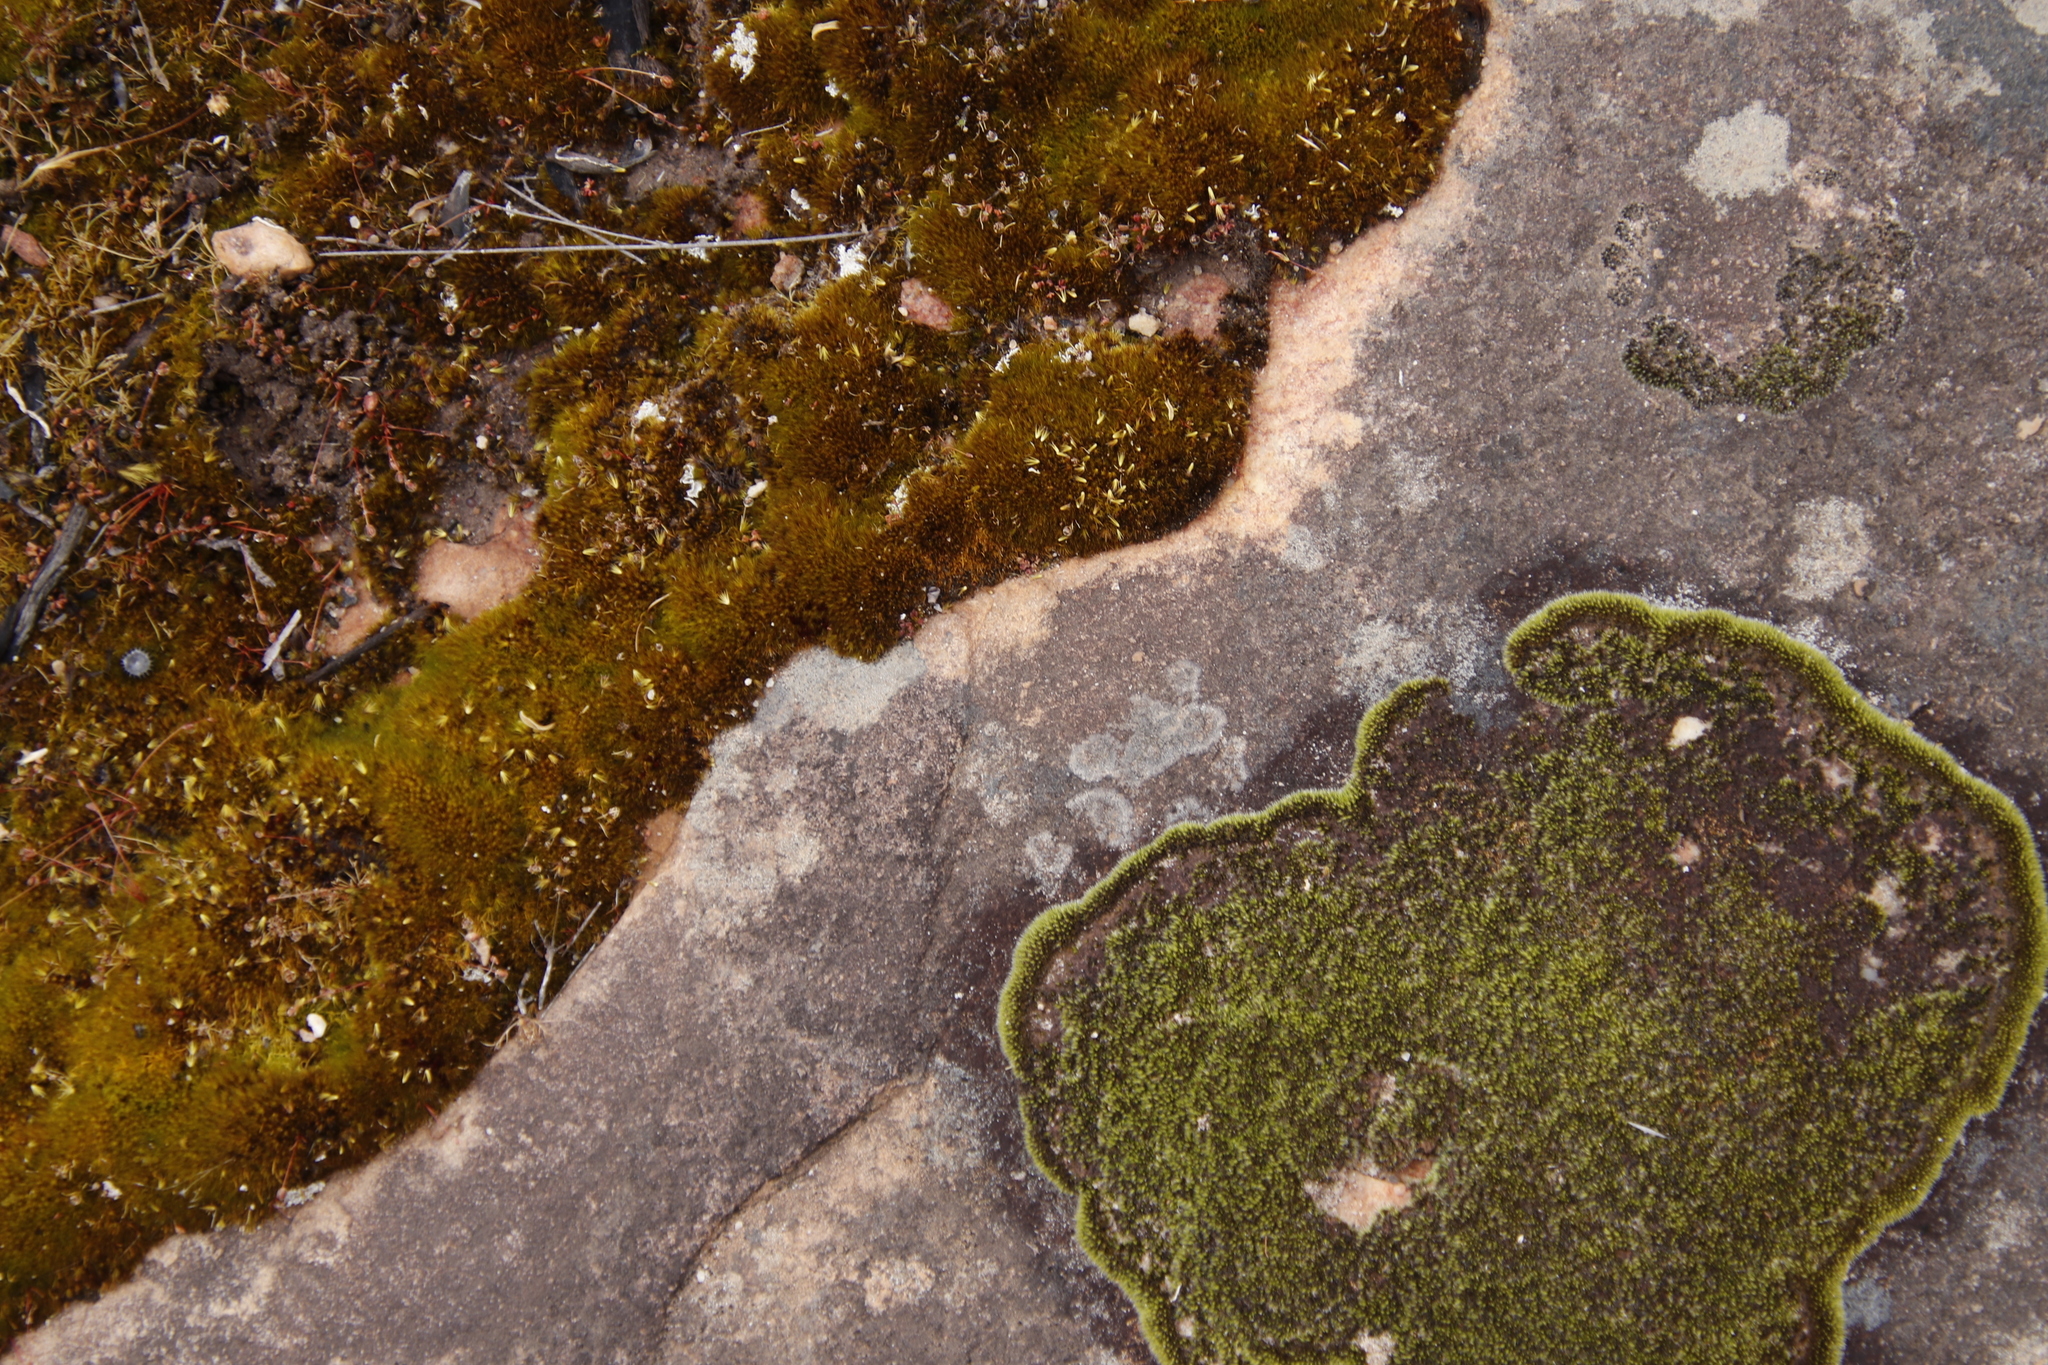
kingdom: Plantae
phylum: Bryophyta
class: Bryopsida
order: Grimmiales
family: Grimmiaceae
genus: Grimmia
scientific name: Grimmia laevigata
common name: Hoary grimmia
